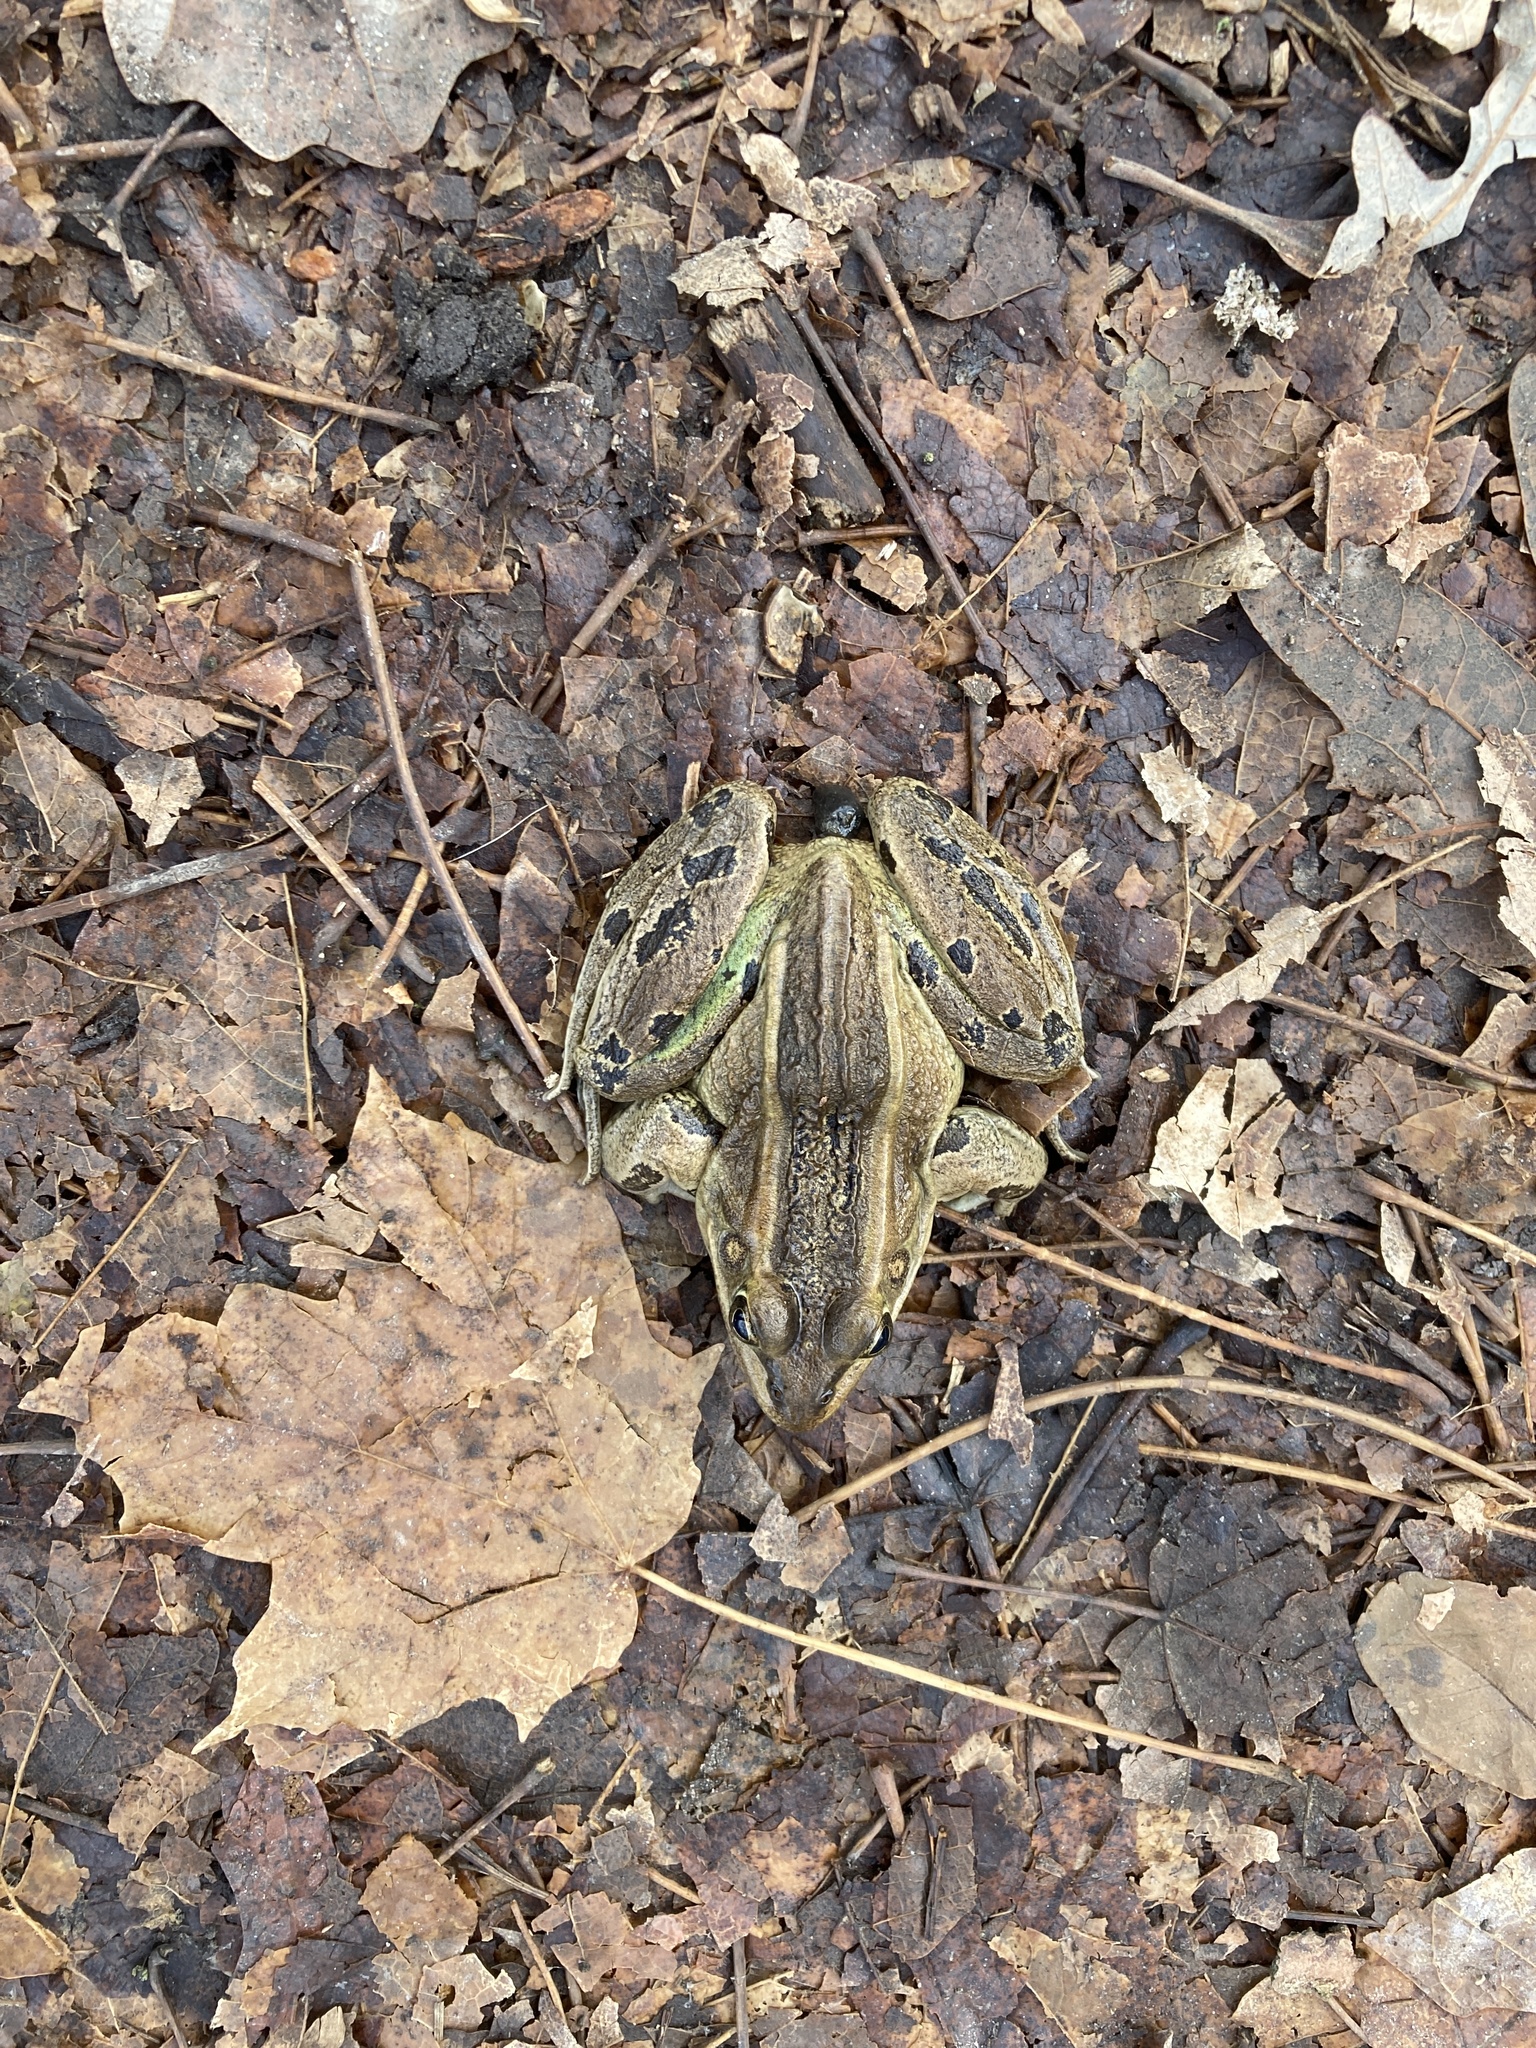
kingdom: Animalia
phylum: Chordata
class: Amphibia
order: Anura
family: Ranidae
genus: Lithobates
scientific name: Lithobates pipiens
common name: Northern leopard frog
